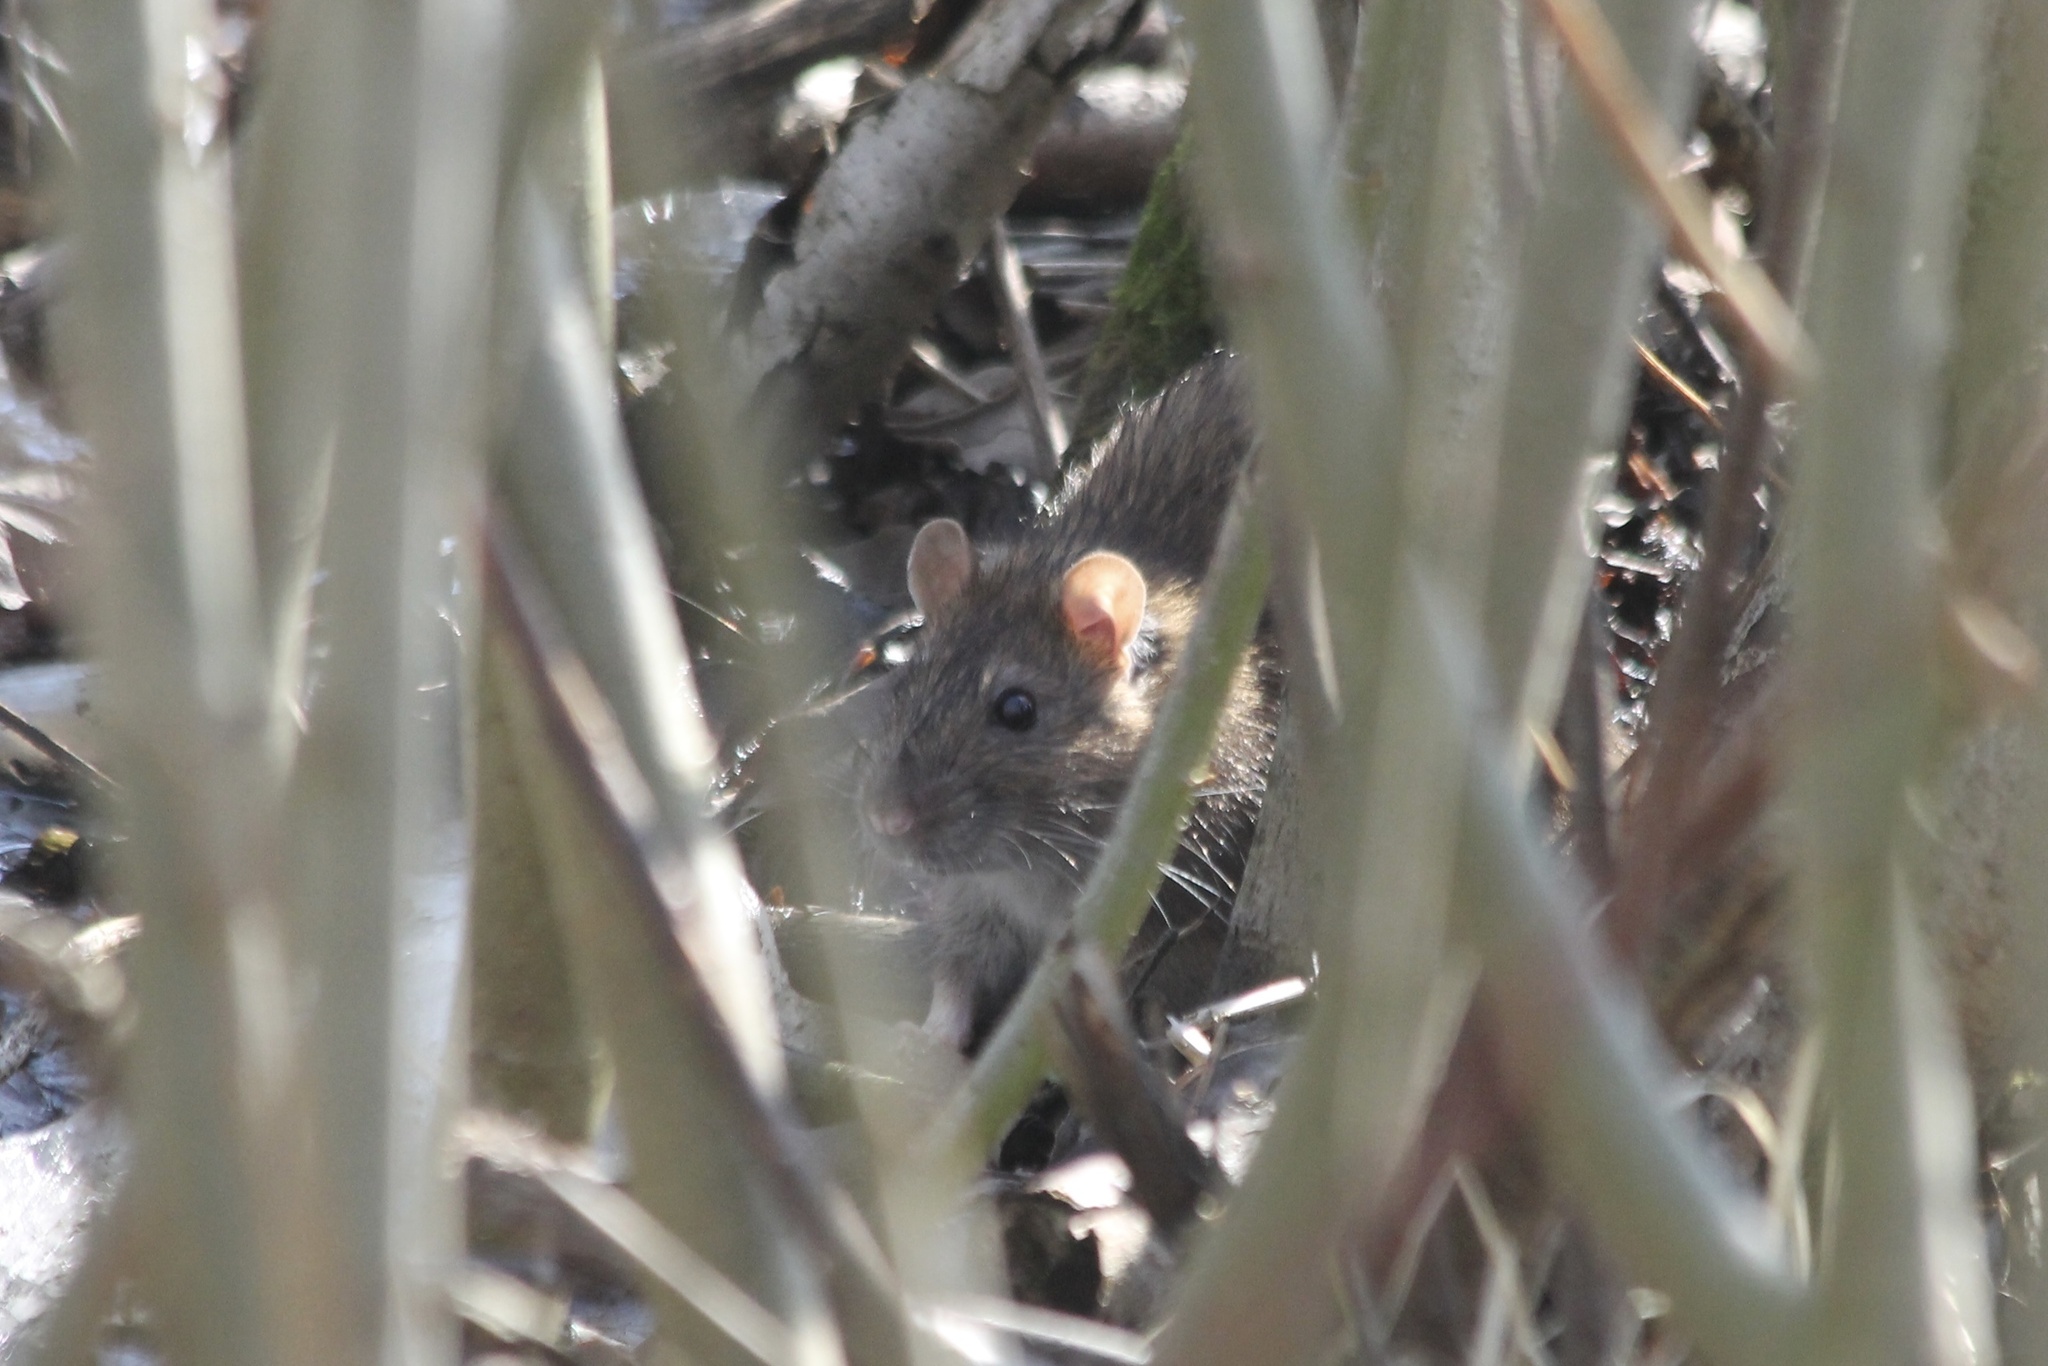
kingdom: Animalia
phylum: Chordata
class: Mammalia
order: Rodentia
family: Muridae
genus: Rattus
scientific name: Rattus norvegicus
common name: Brown rat
